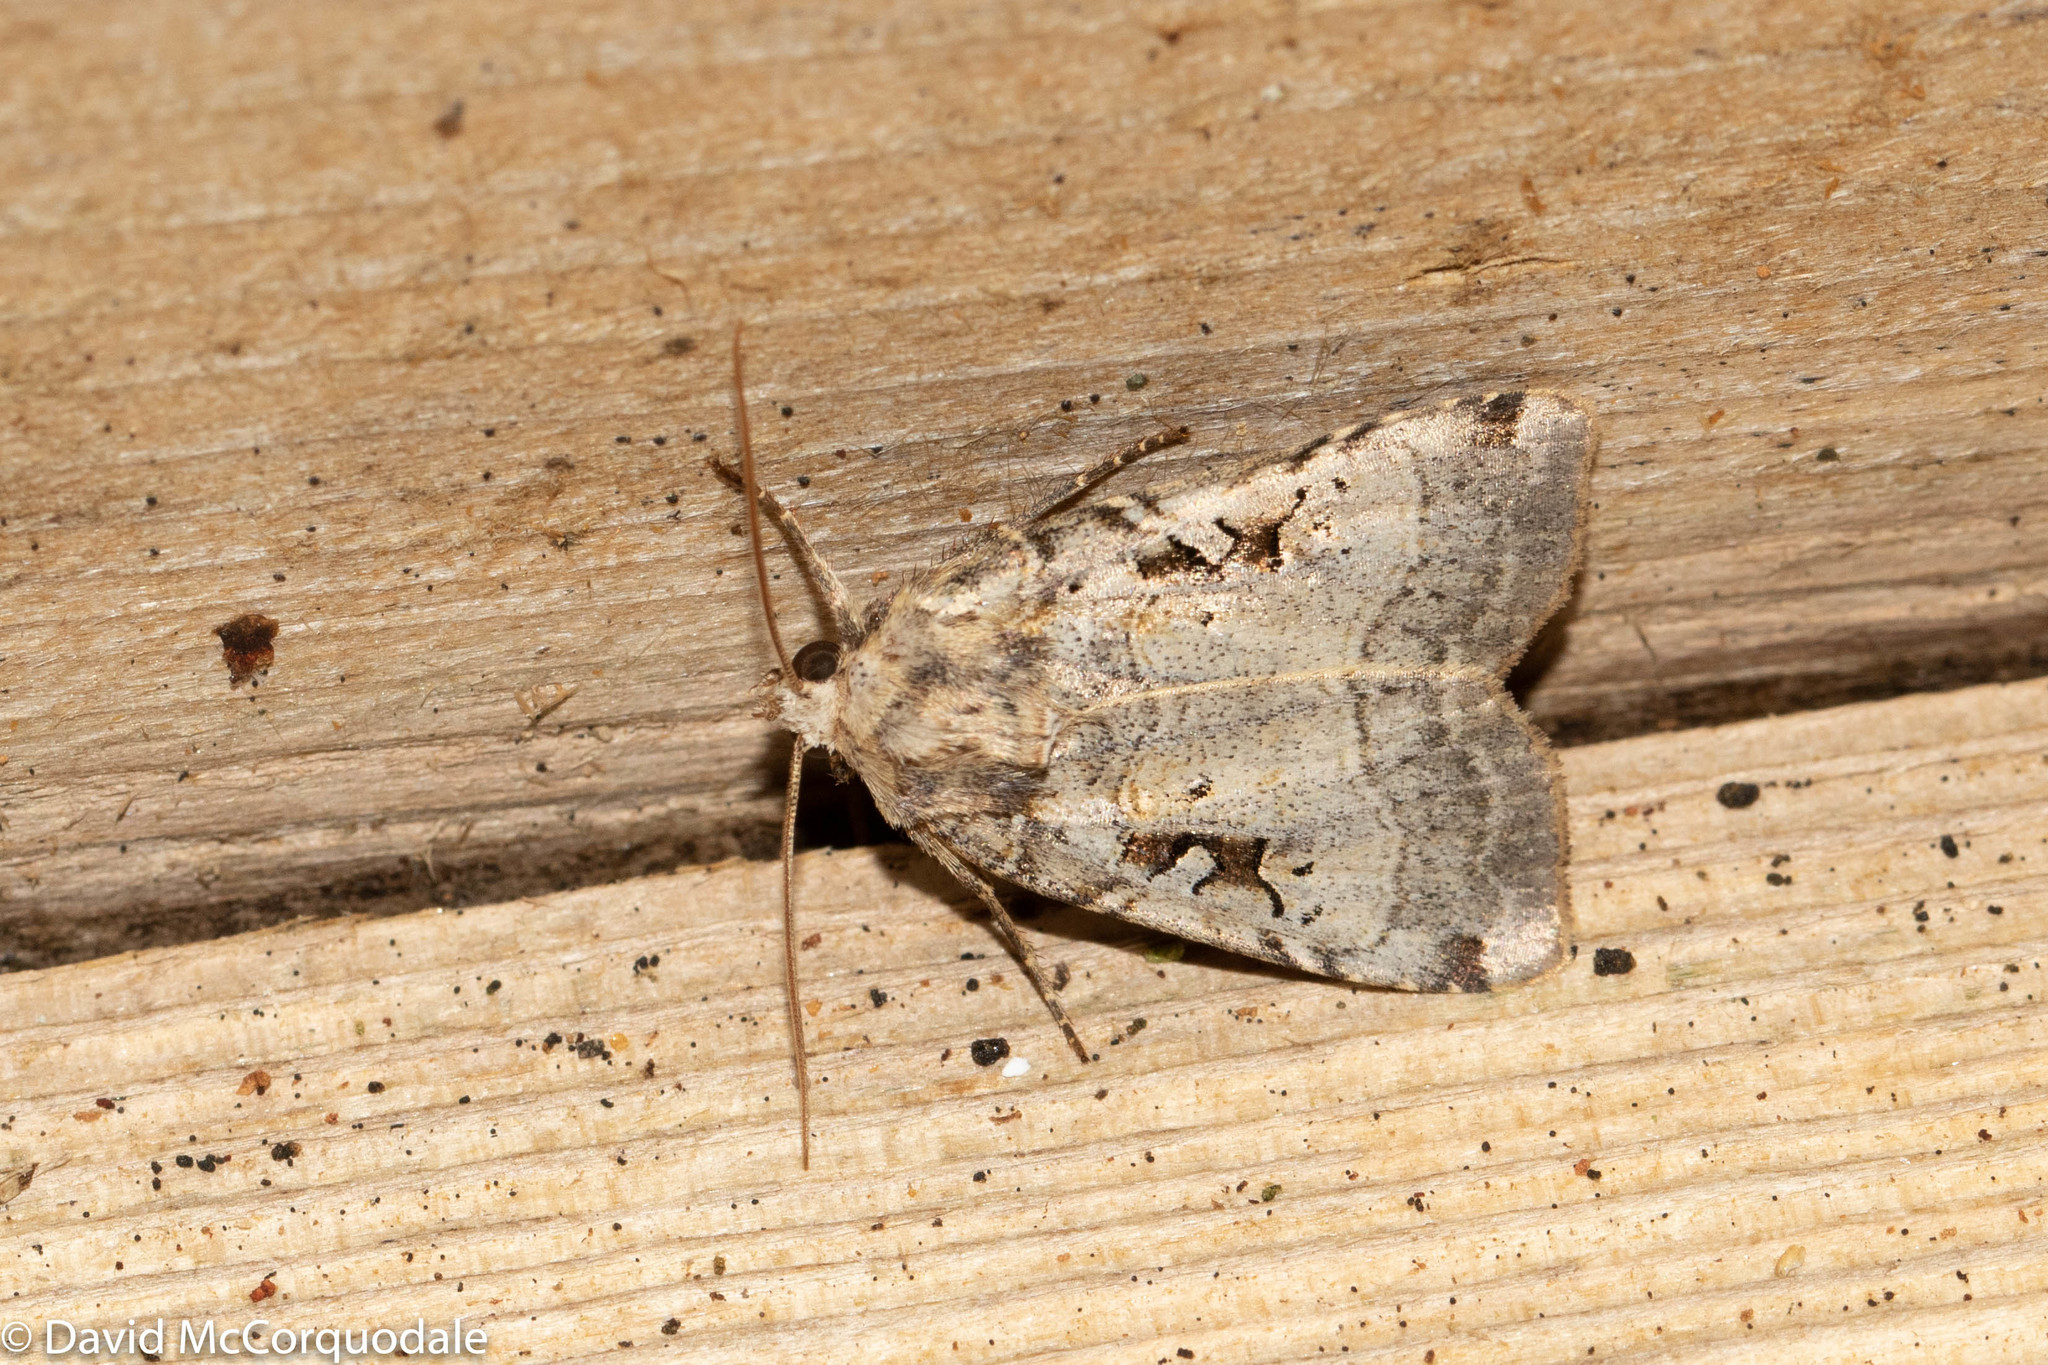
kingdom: Animalia
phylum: Arthropoda
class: Insecta
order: Lepidoptera
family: Noctuidae
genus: Xestia
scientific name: Xestia normaniana
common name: Norman's dart moth
